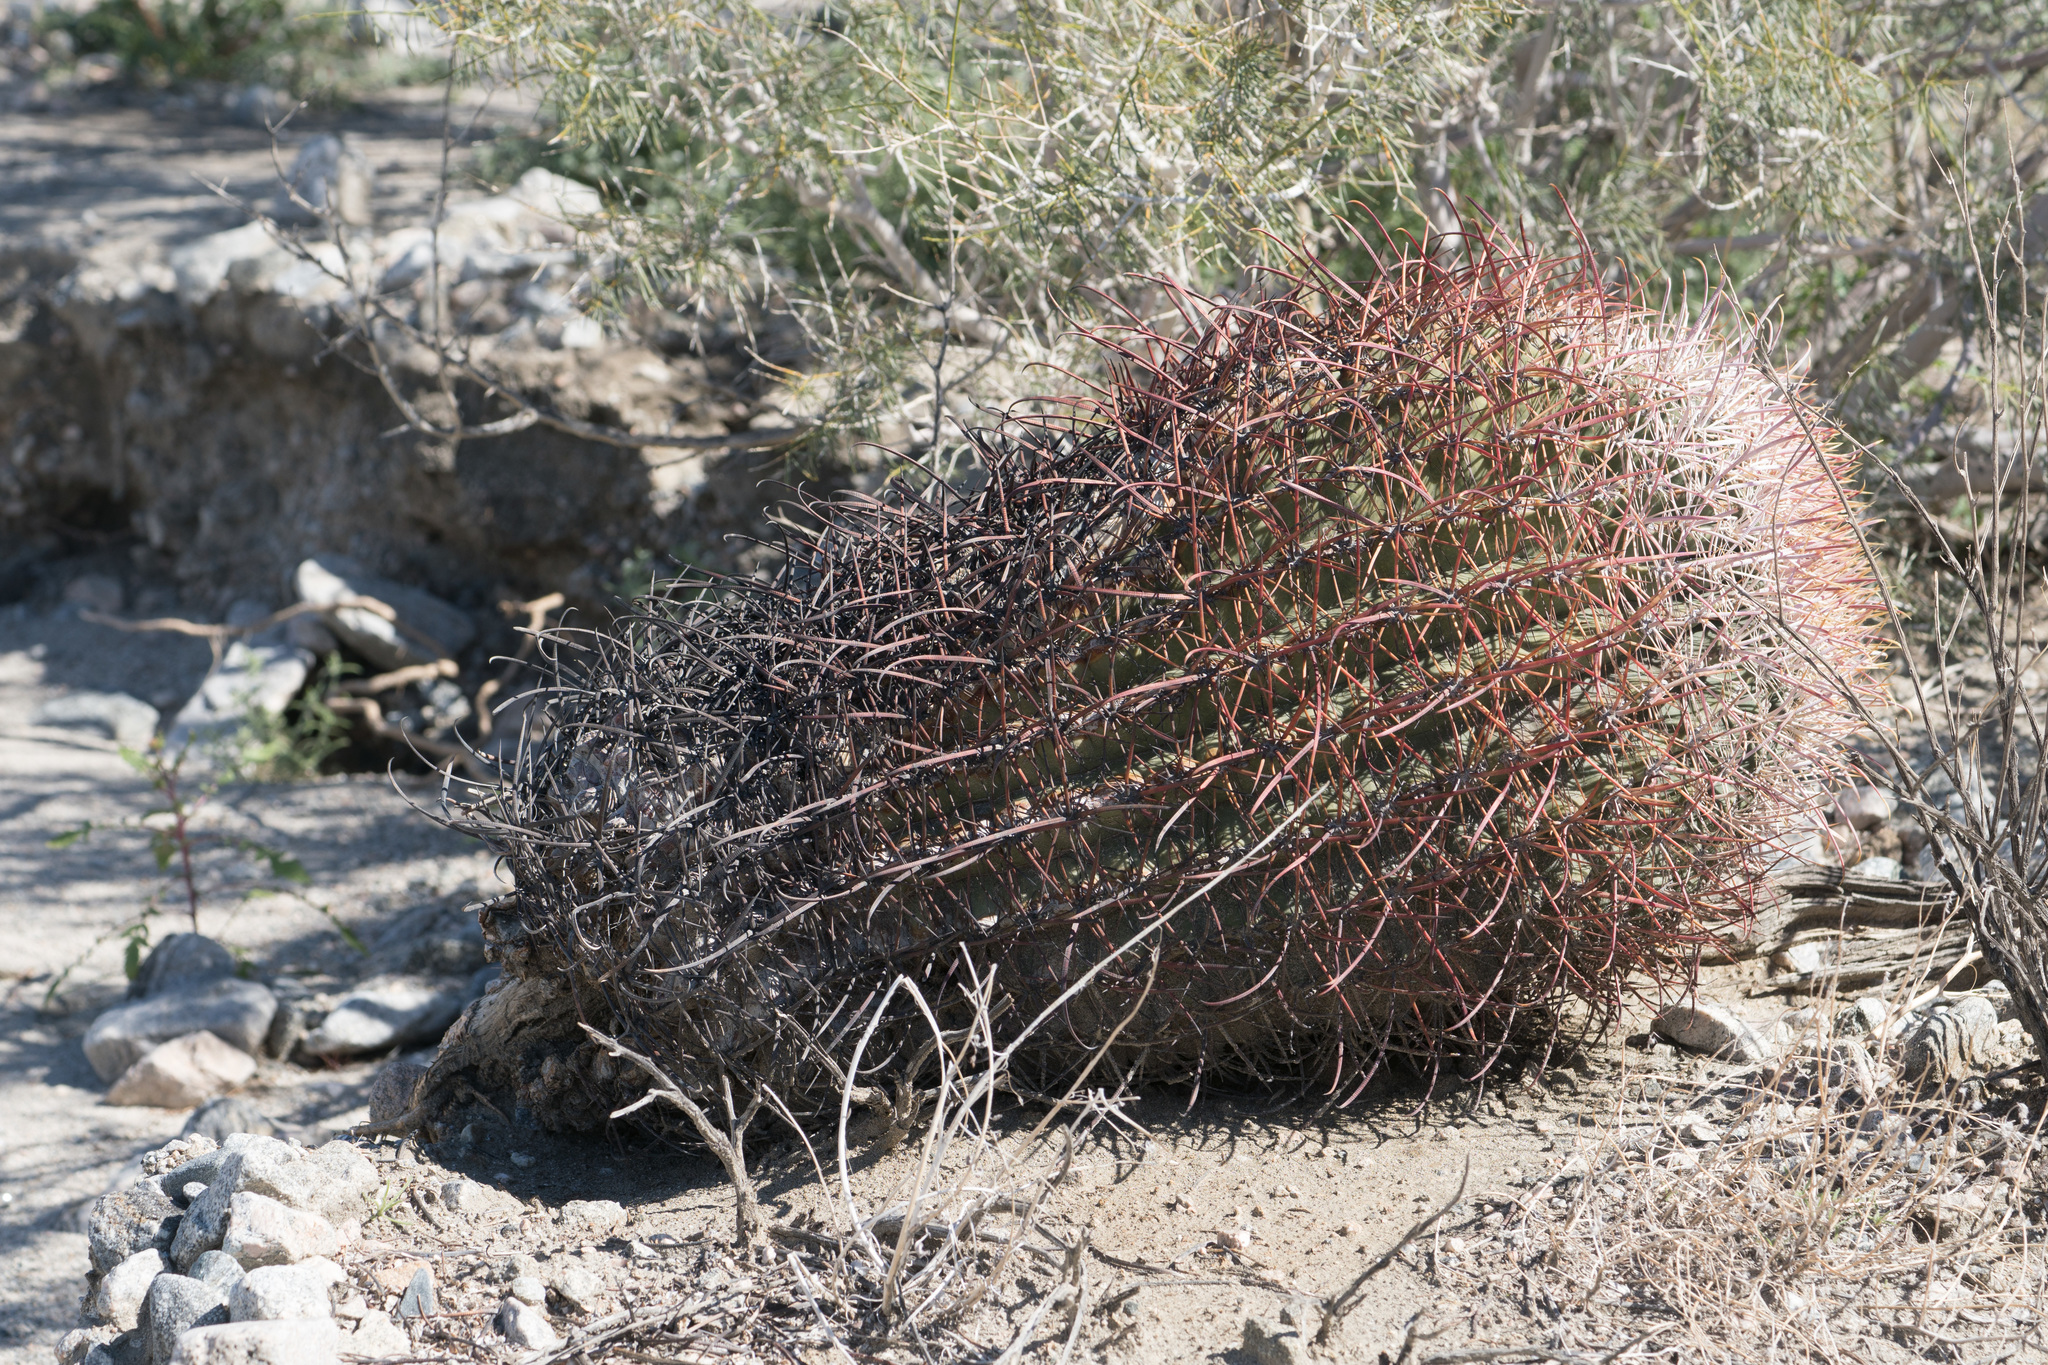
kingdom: Plantae
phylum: Tracheophyta
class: Magnoliopsida
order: Caryophyllales
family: Cactaceae
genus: Ferocactus
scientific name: Ferocactus cylindraceus
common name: California barrel cactus
